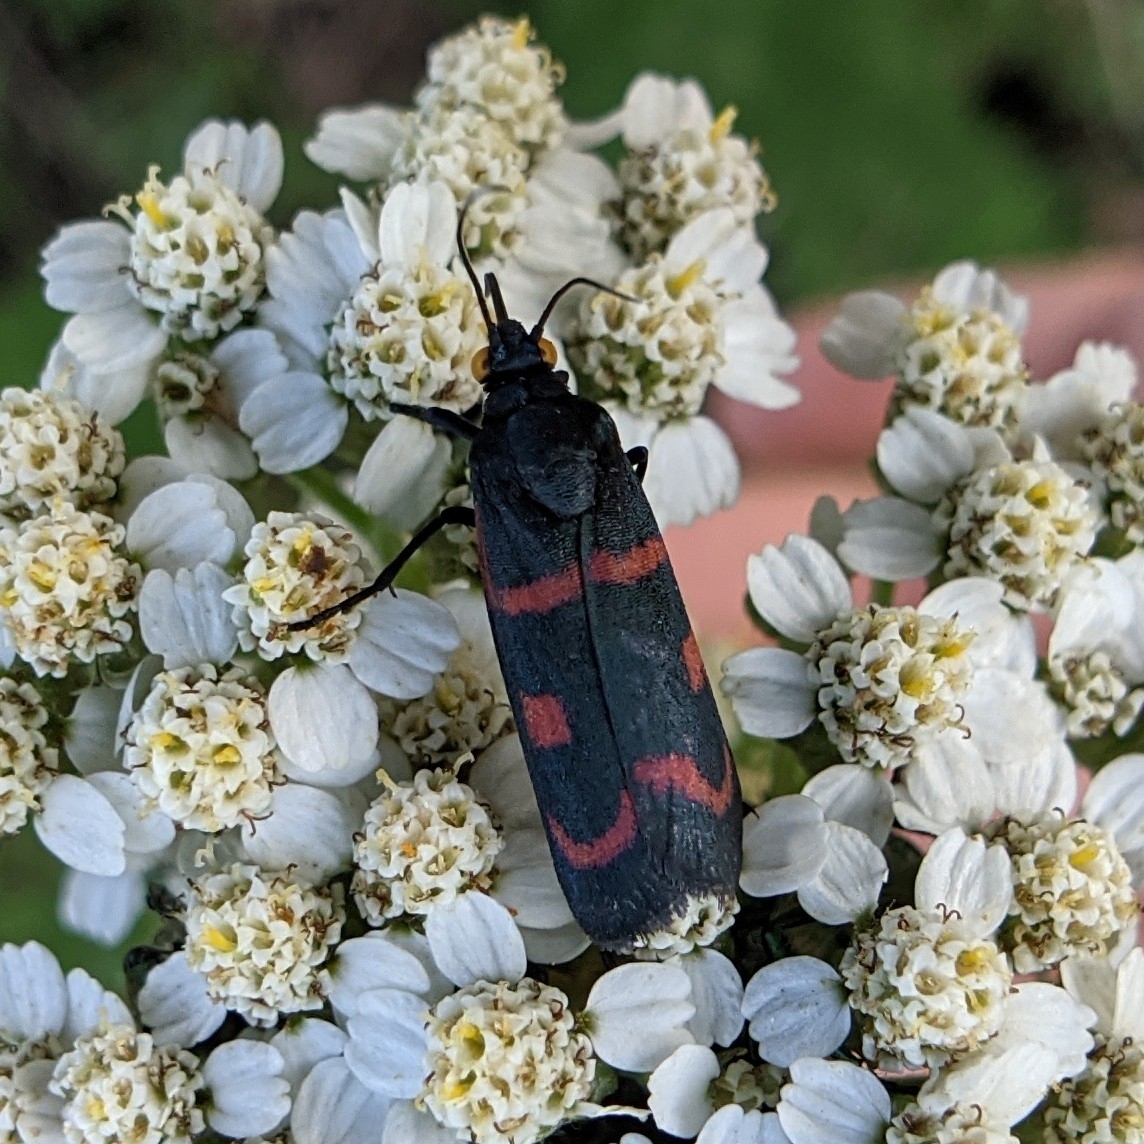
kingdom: Animalia
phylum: Arthropoda
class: Insecta
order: Lepidoptera
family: Noctuidae
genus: Cydosia
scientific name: Cydosia aurivitta
